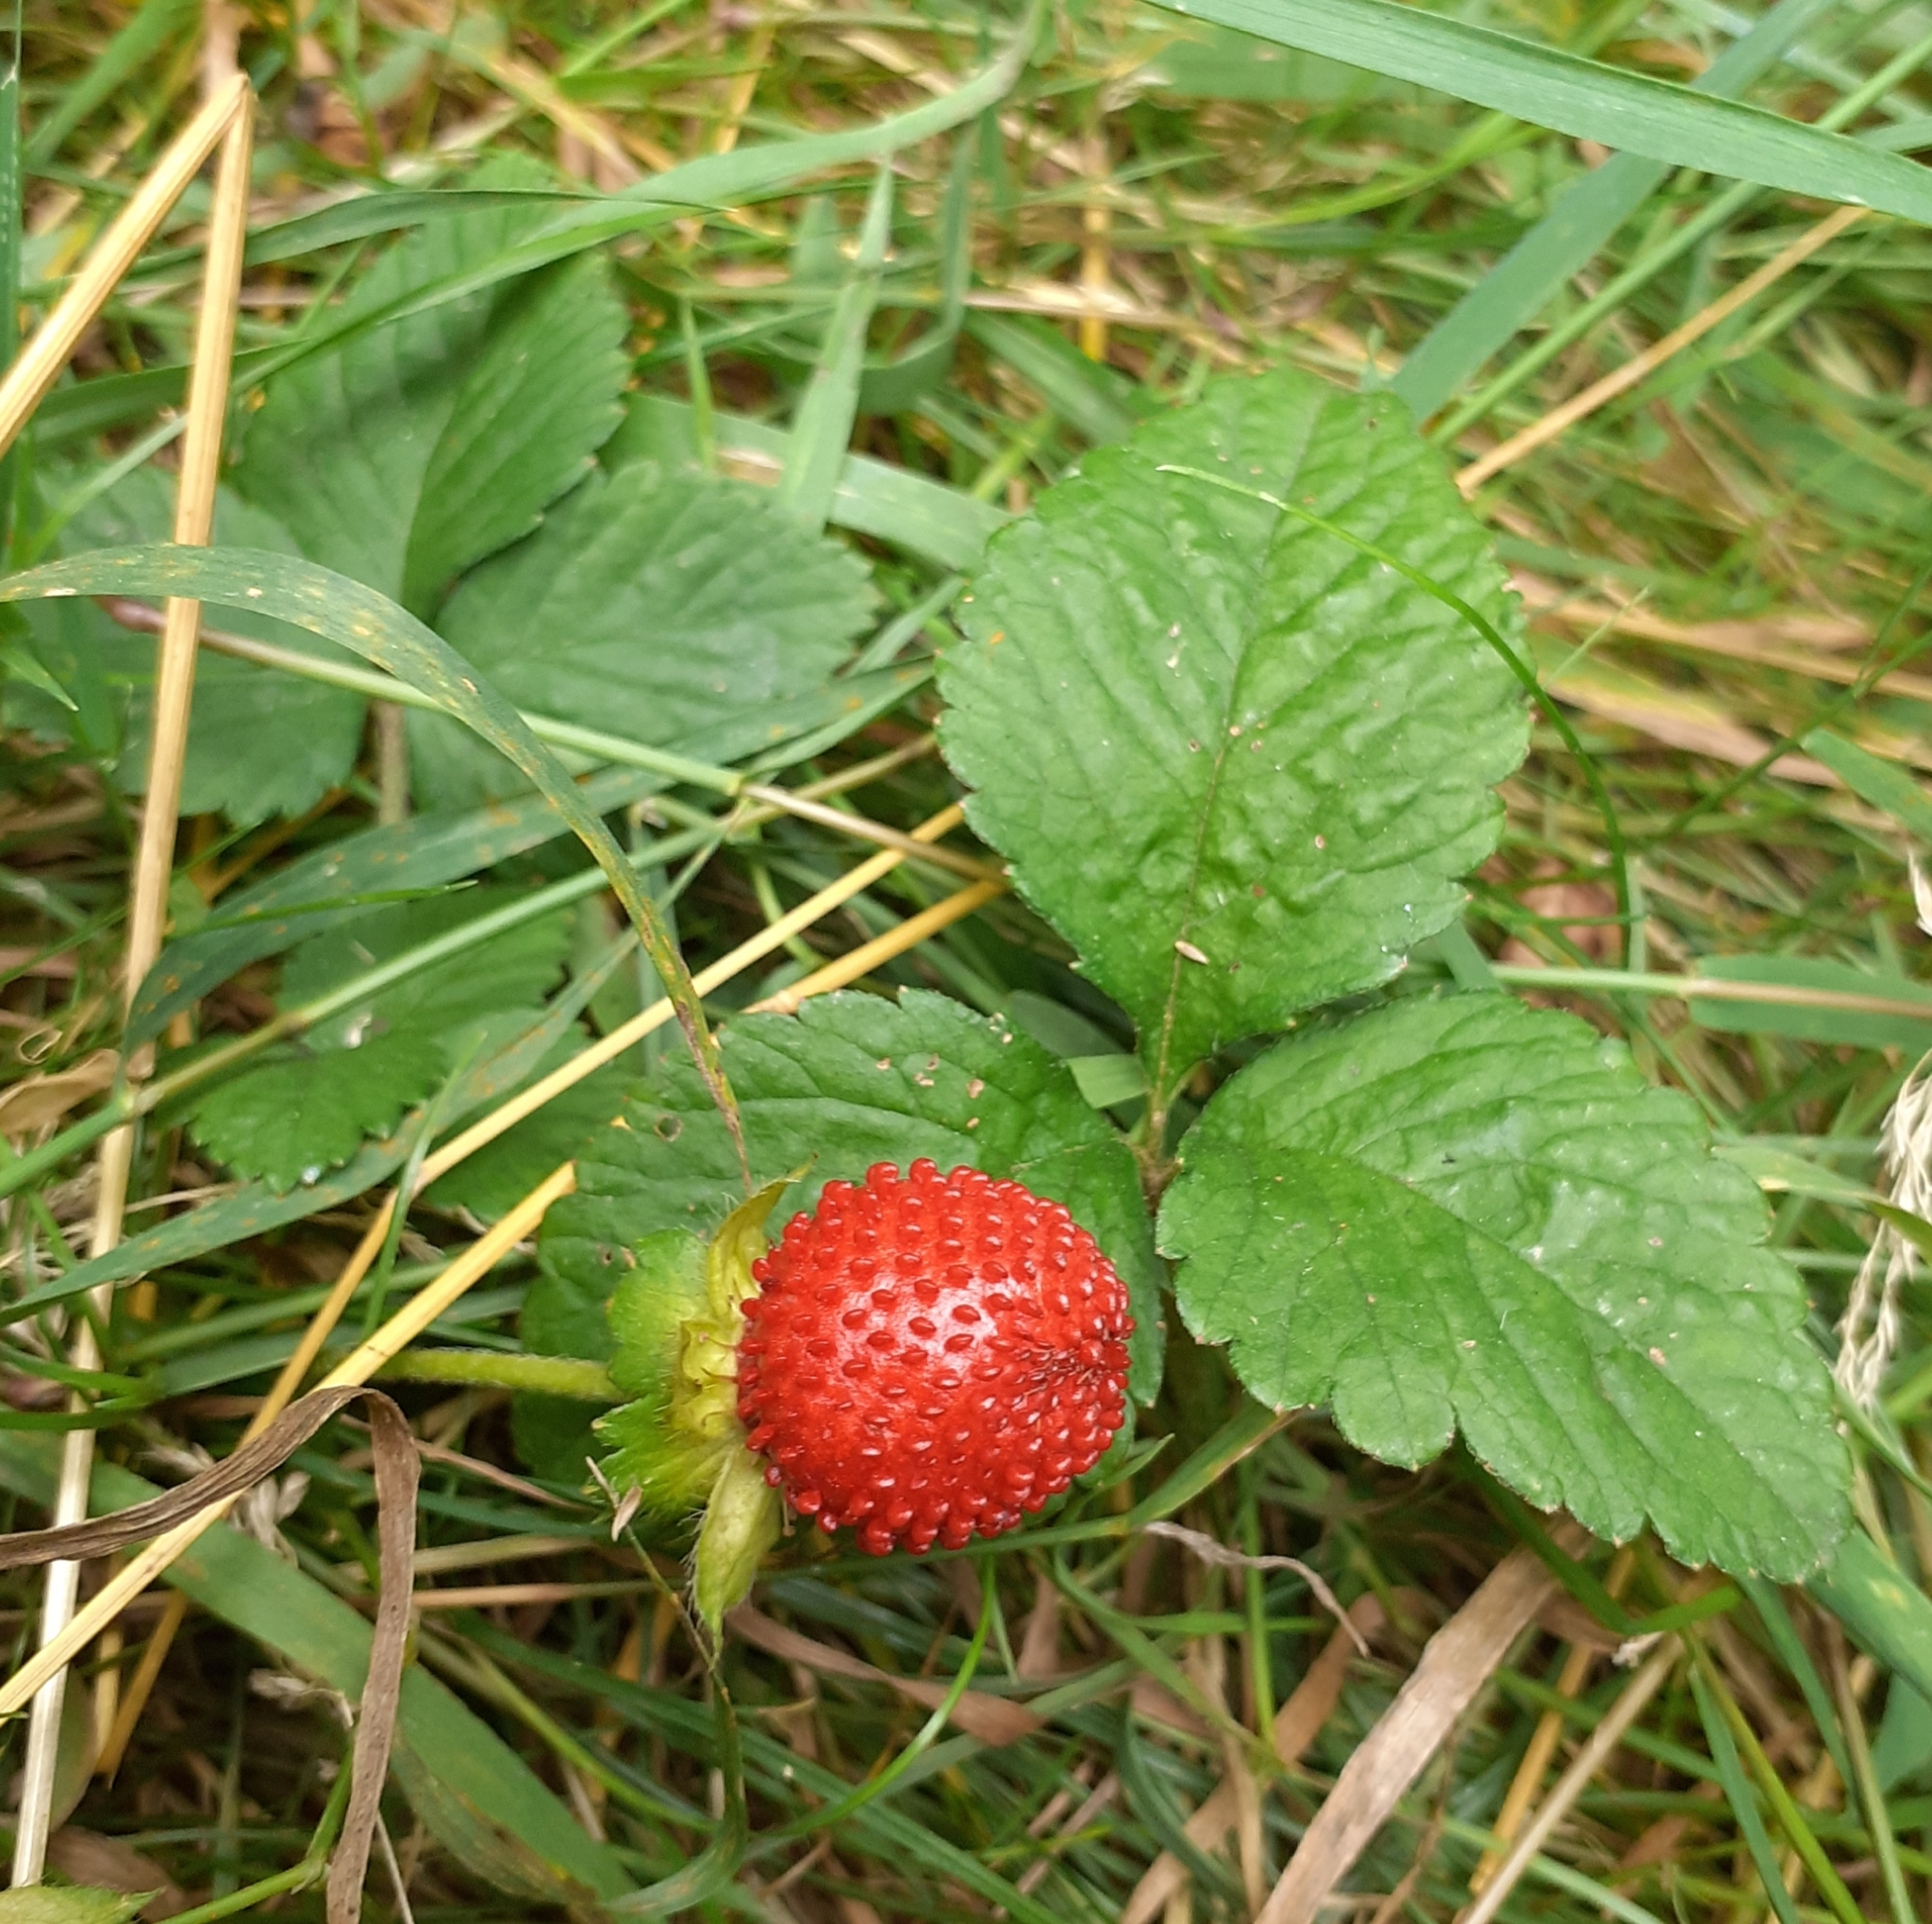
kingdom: Plantae
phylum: Tracheophyta
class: Magnoliopsida
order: Rosales
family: Rosaceae
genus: Potentilla
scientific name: Potentilla indica
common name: Yellow-flowered strawberry
